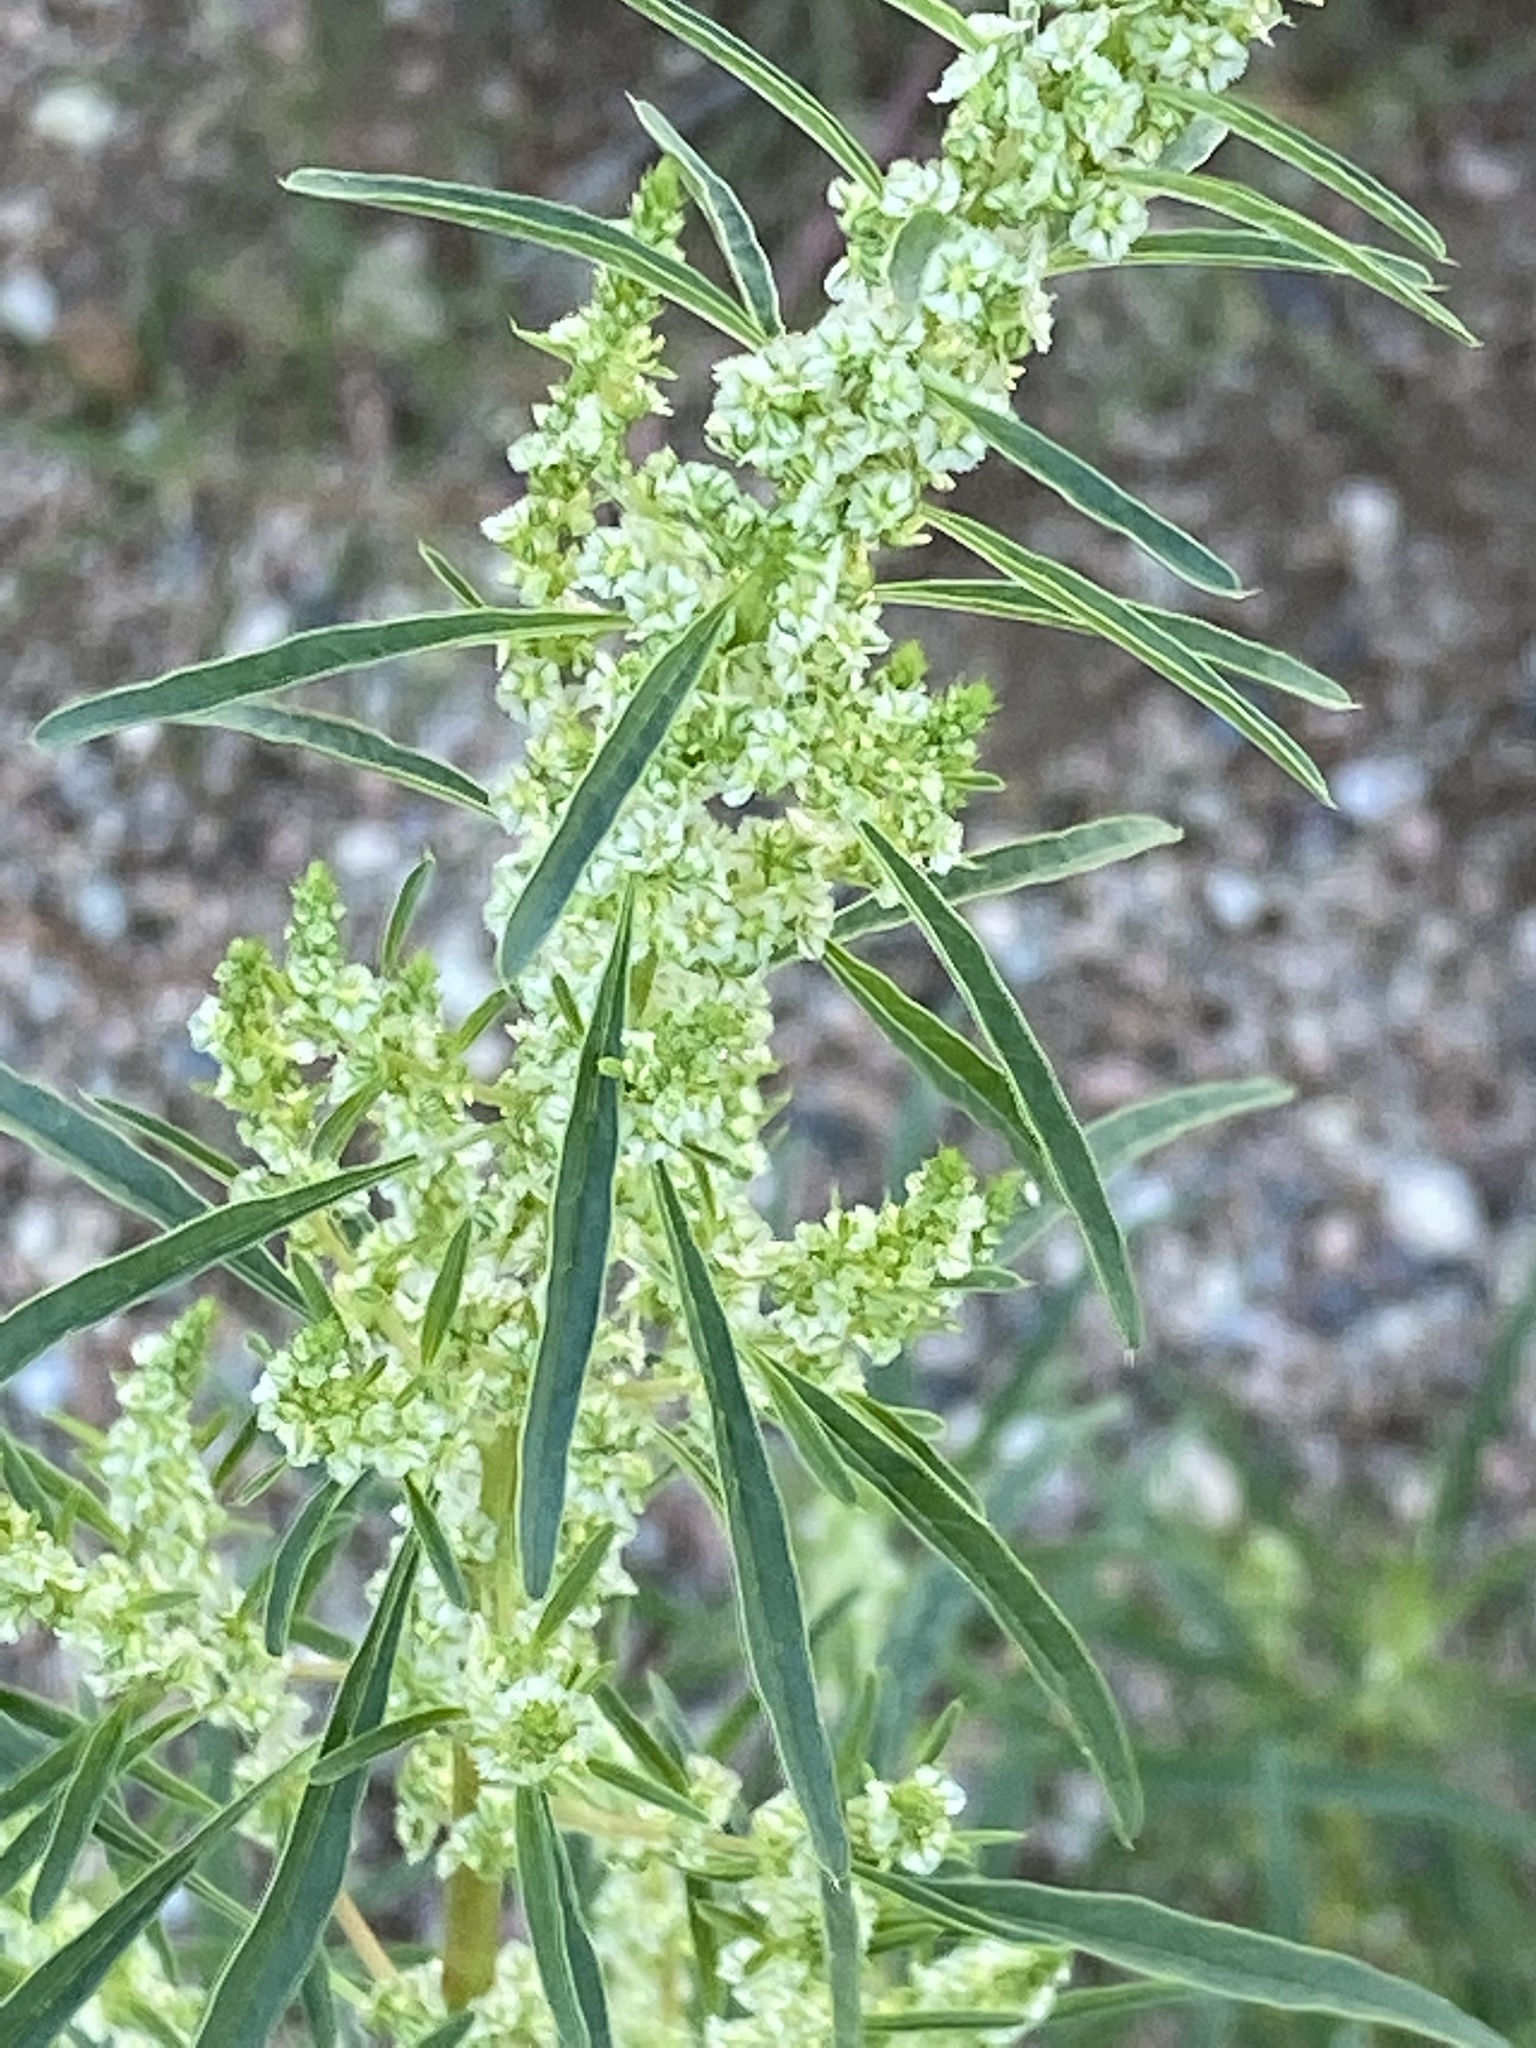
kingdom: Plantae
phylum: Tracheophyta
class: Magnoliopsida
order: Caryophyllales
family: Amaranthaceae
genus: Amaranthus
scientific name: Amaranthus fimbriatus
